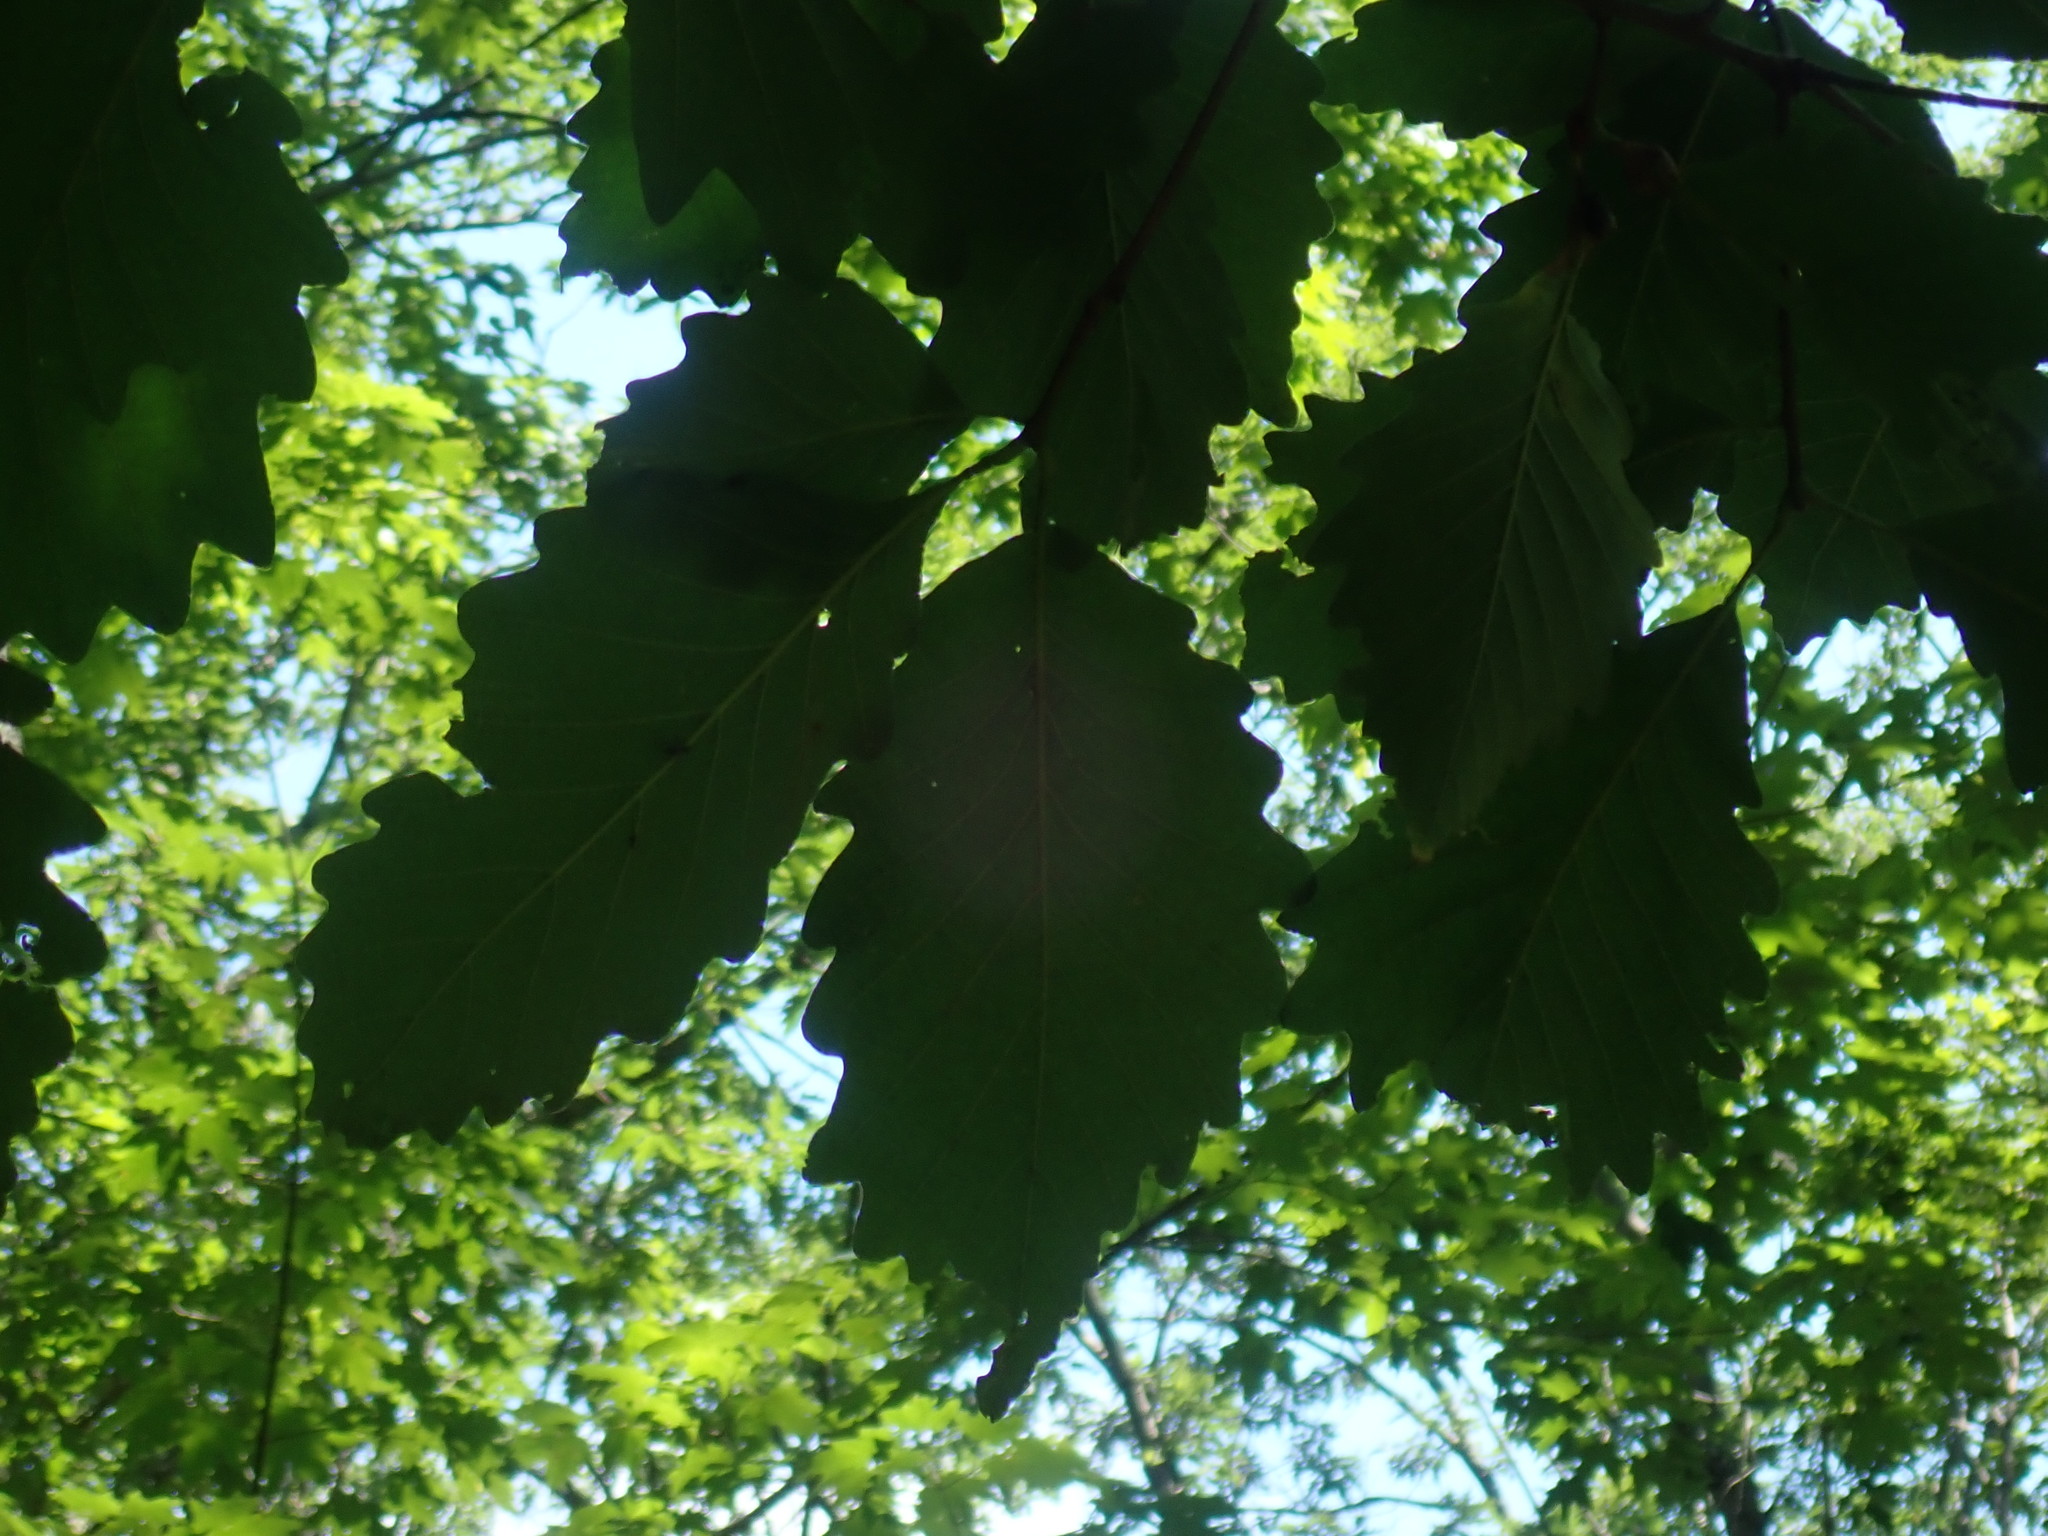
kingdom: Plantae
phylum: Tracheophyta
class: Magnoliopsida
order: Fagales
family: Fagaceae
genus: Quercus
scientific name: Quercus montana
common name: Chestnut oak
